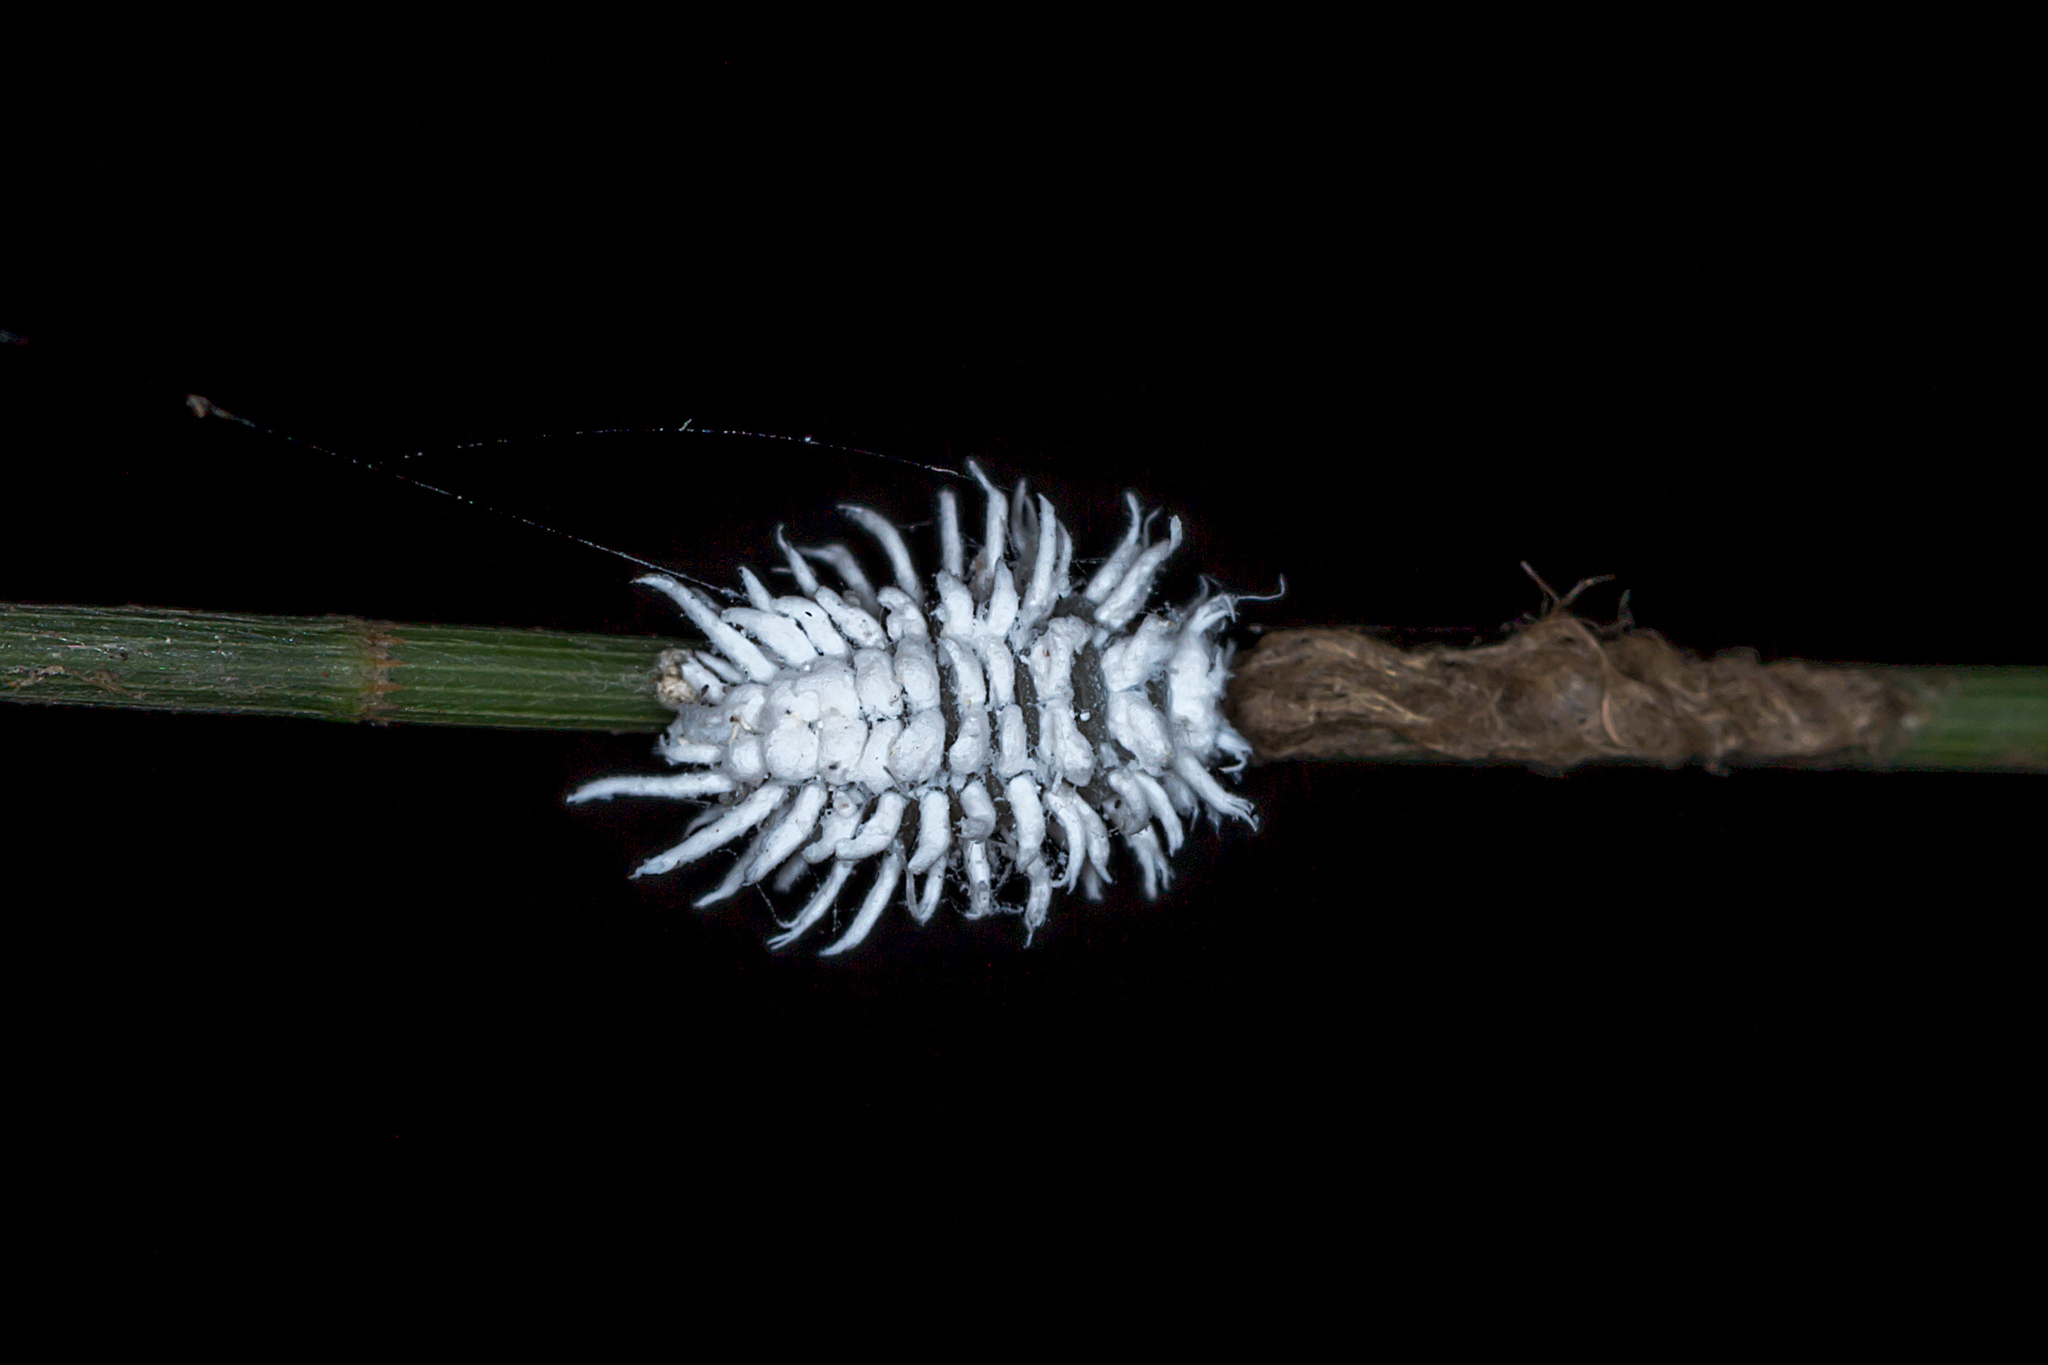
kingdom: Animalia
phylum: Arthropoda
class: Insecta
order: Coleoptera
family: Coccinellidae
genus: Cryptolaemus
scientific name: Cryptolaemus montrouzieri
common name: Mealybug destroyer
